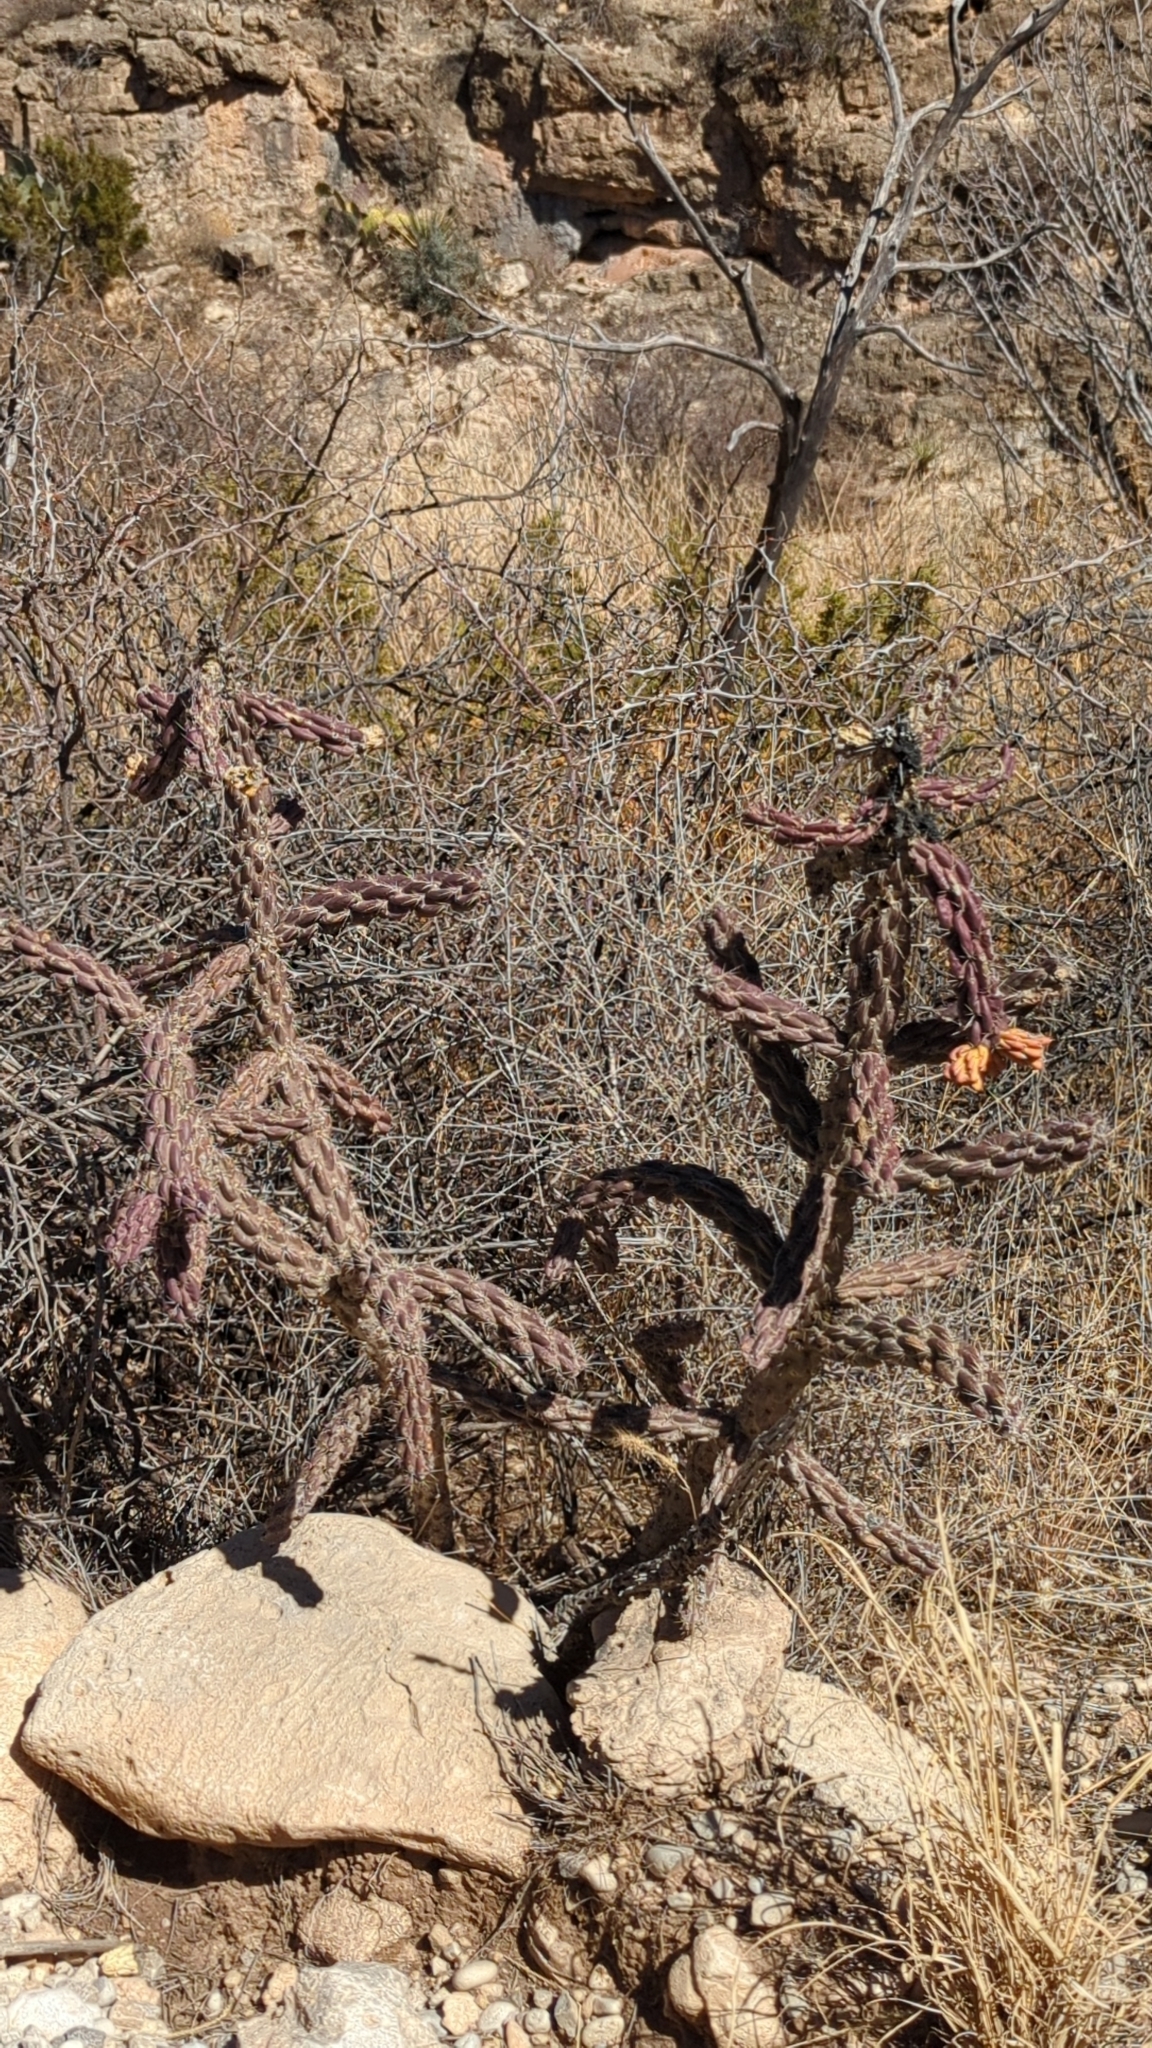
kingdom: Plantae
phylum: Tracheophyta
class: Magnoliopsida
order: Caryophyllales
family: Cactaceae
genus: Cylindropuntia
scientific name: Cylindropuntia imbricata
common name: Candelabrum cactus
